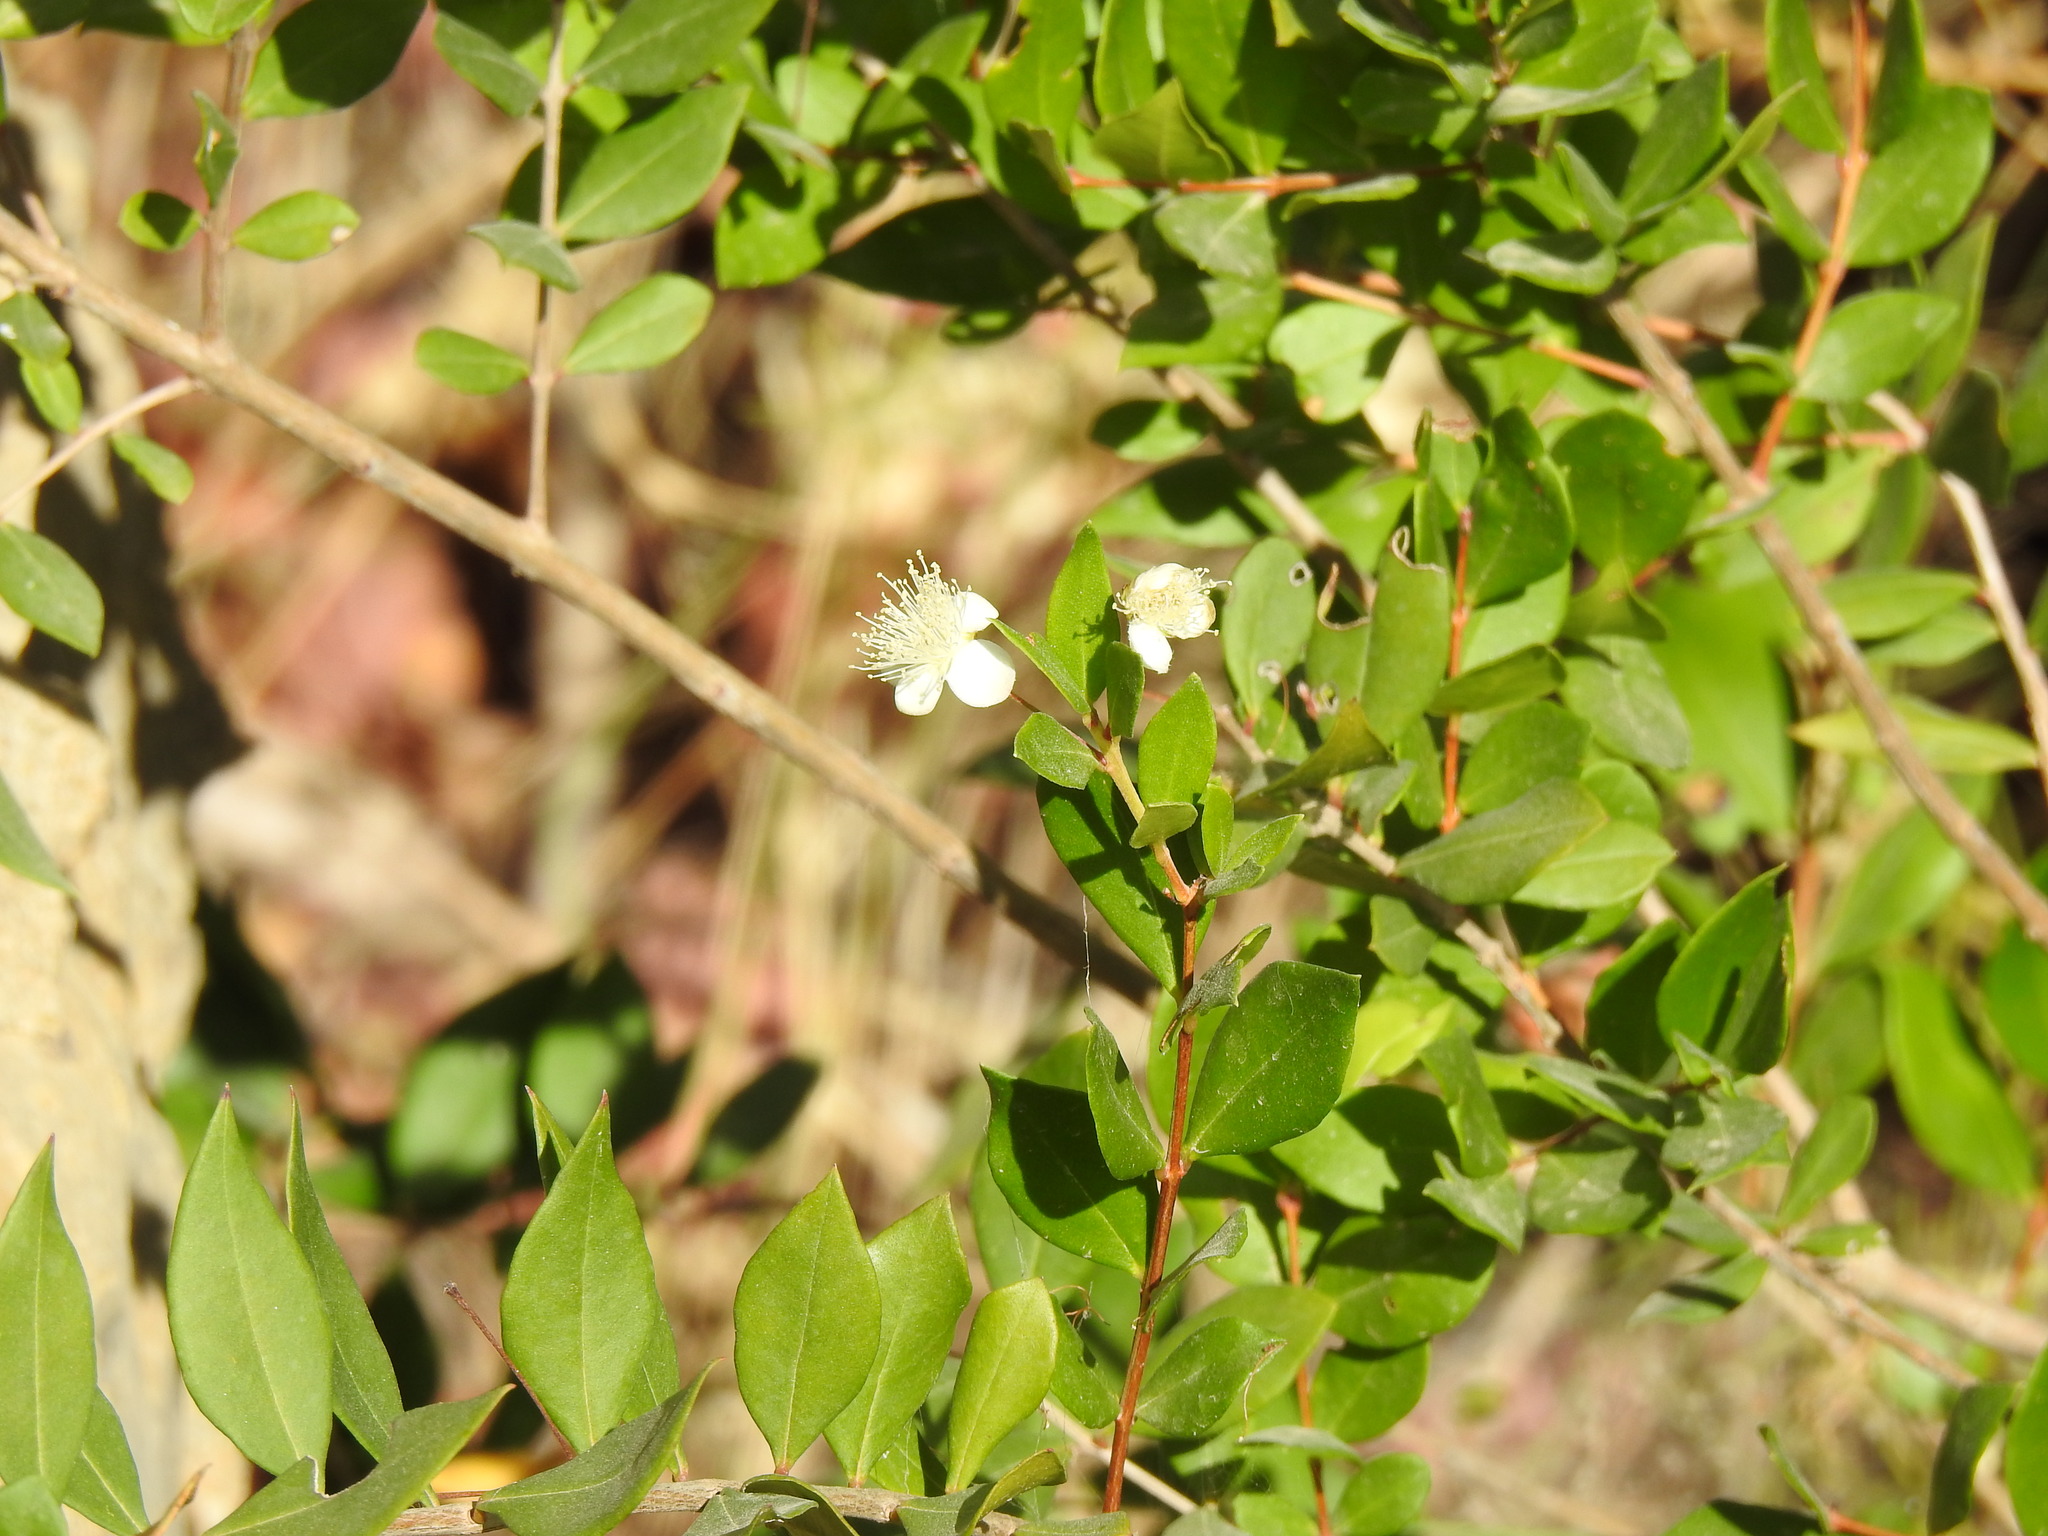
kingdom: Plantae
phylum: Tracheophyta
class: Magnoliopsida
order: Myrtales
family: Myrtaceae
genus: Myrtus
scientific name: Myrtus communis
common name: Myrtle
